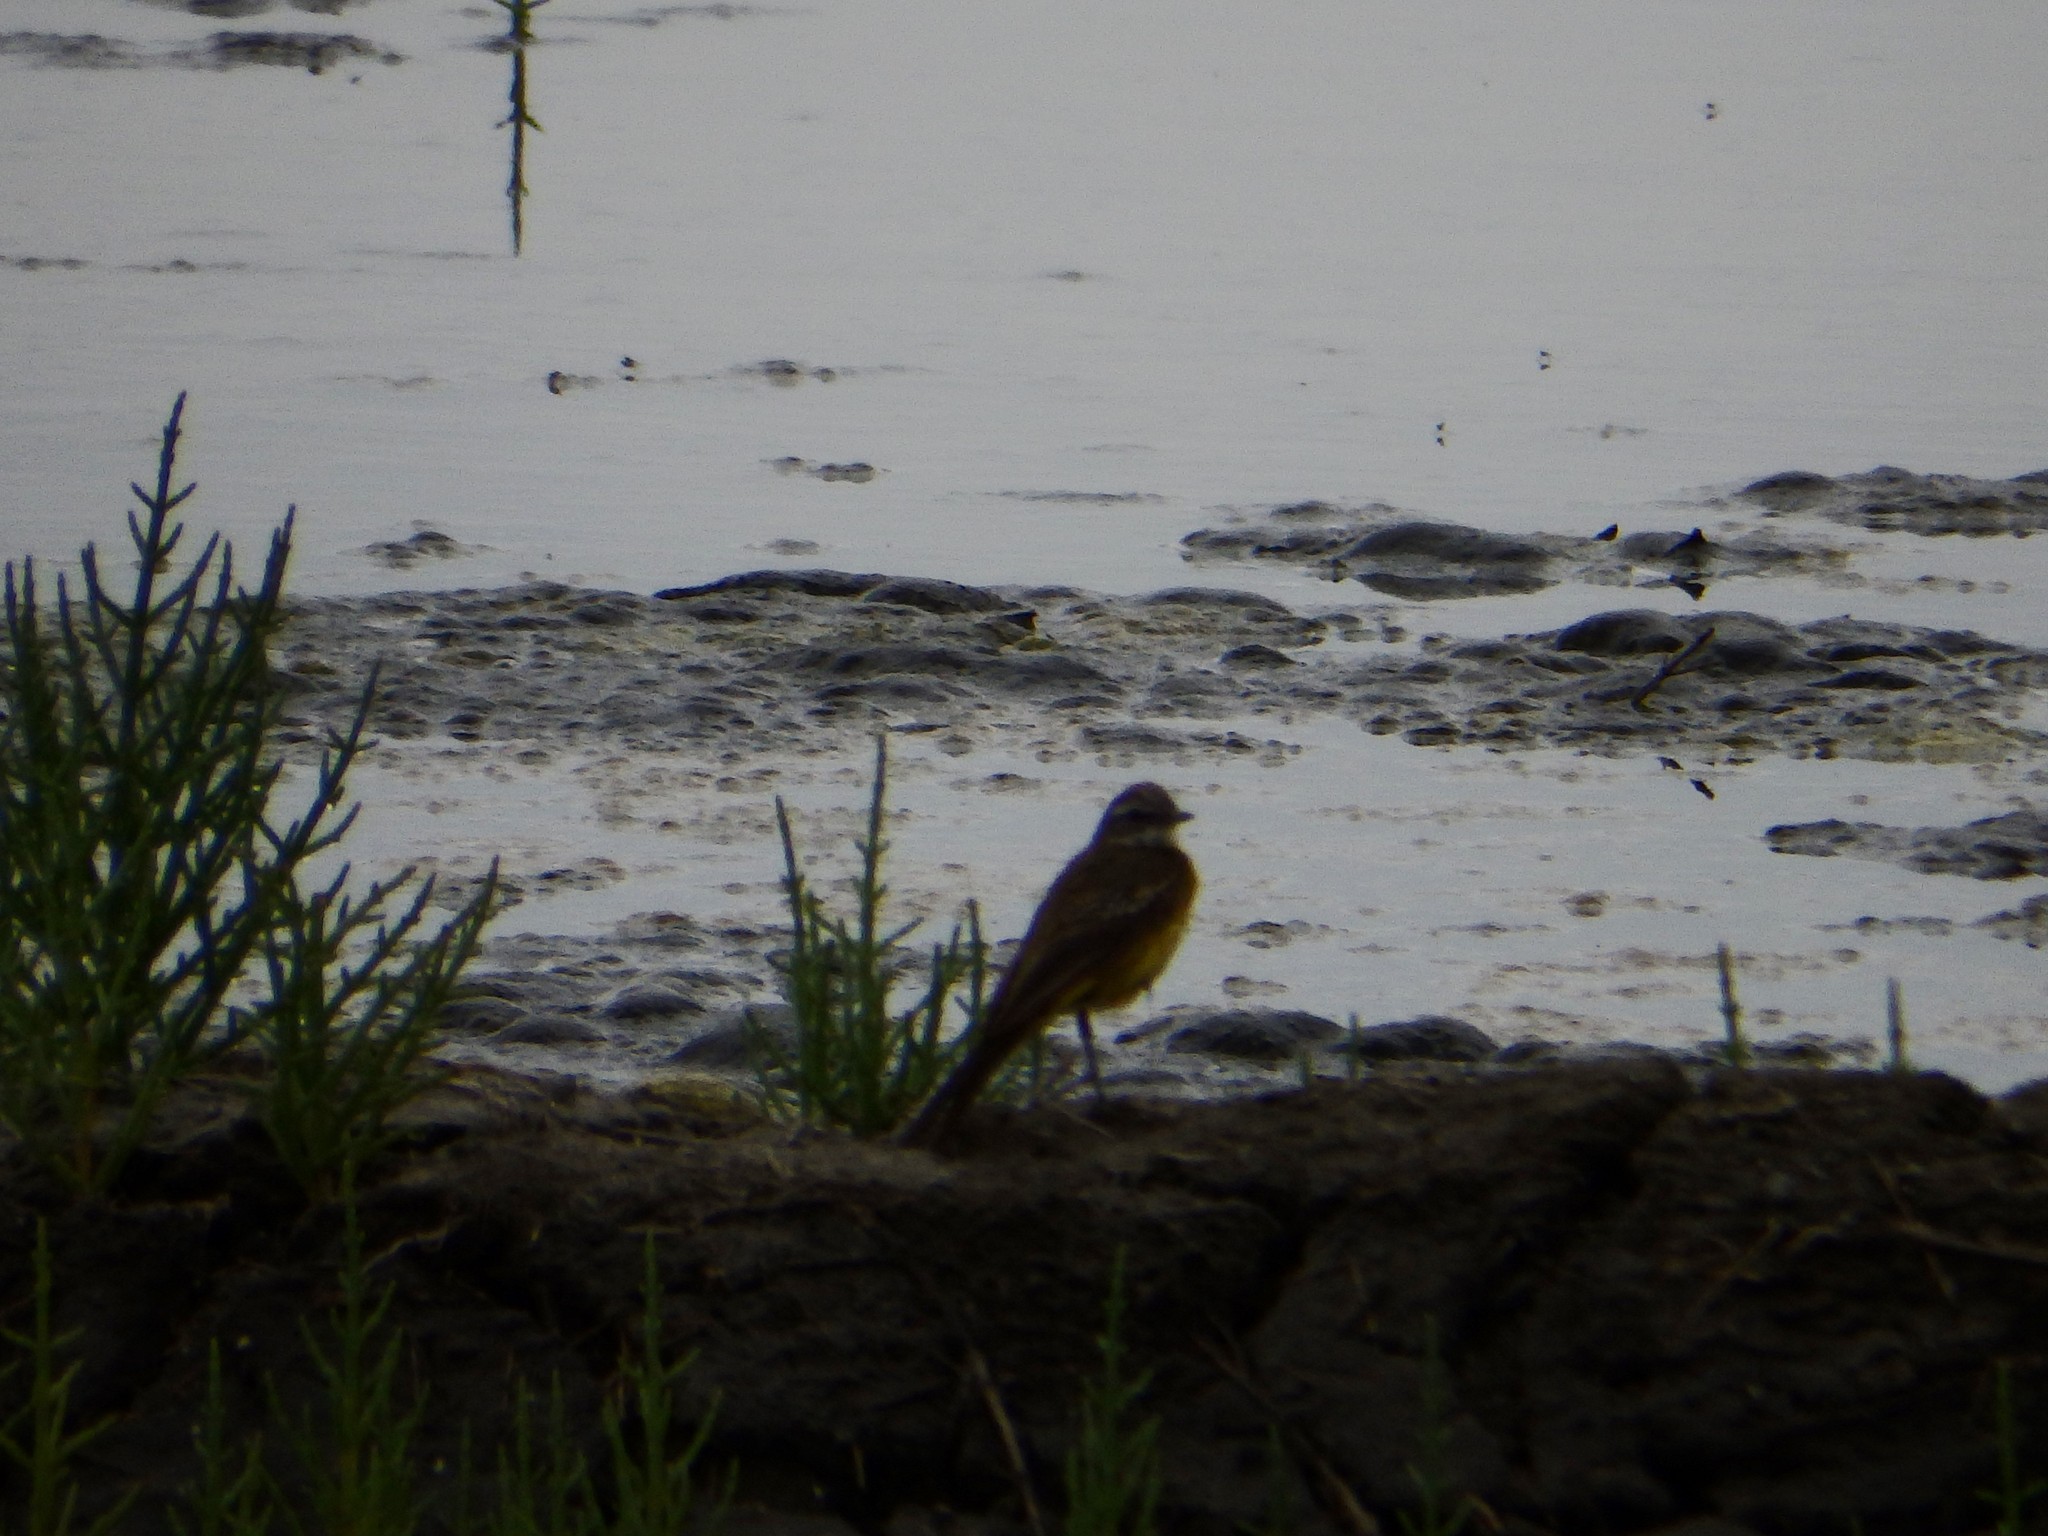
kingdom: Animalia
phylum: Chordata
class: Aves
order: Passeriformes
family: Motacillidae
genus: Motacilla
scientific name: Motacilla flava
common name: Western yellow wagtail
